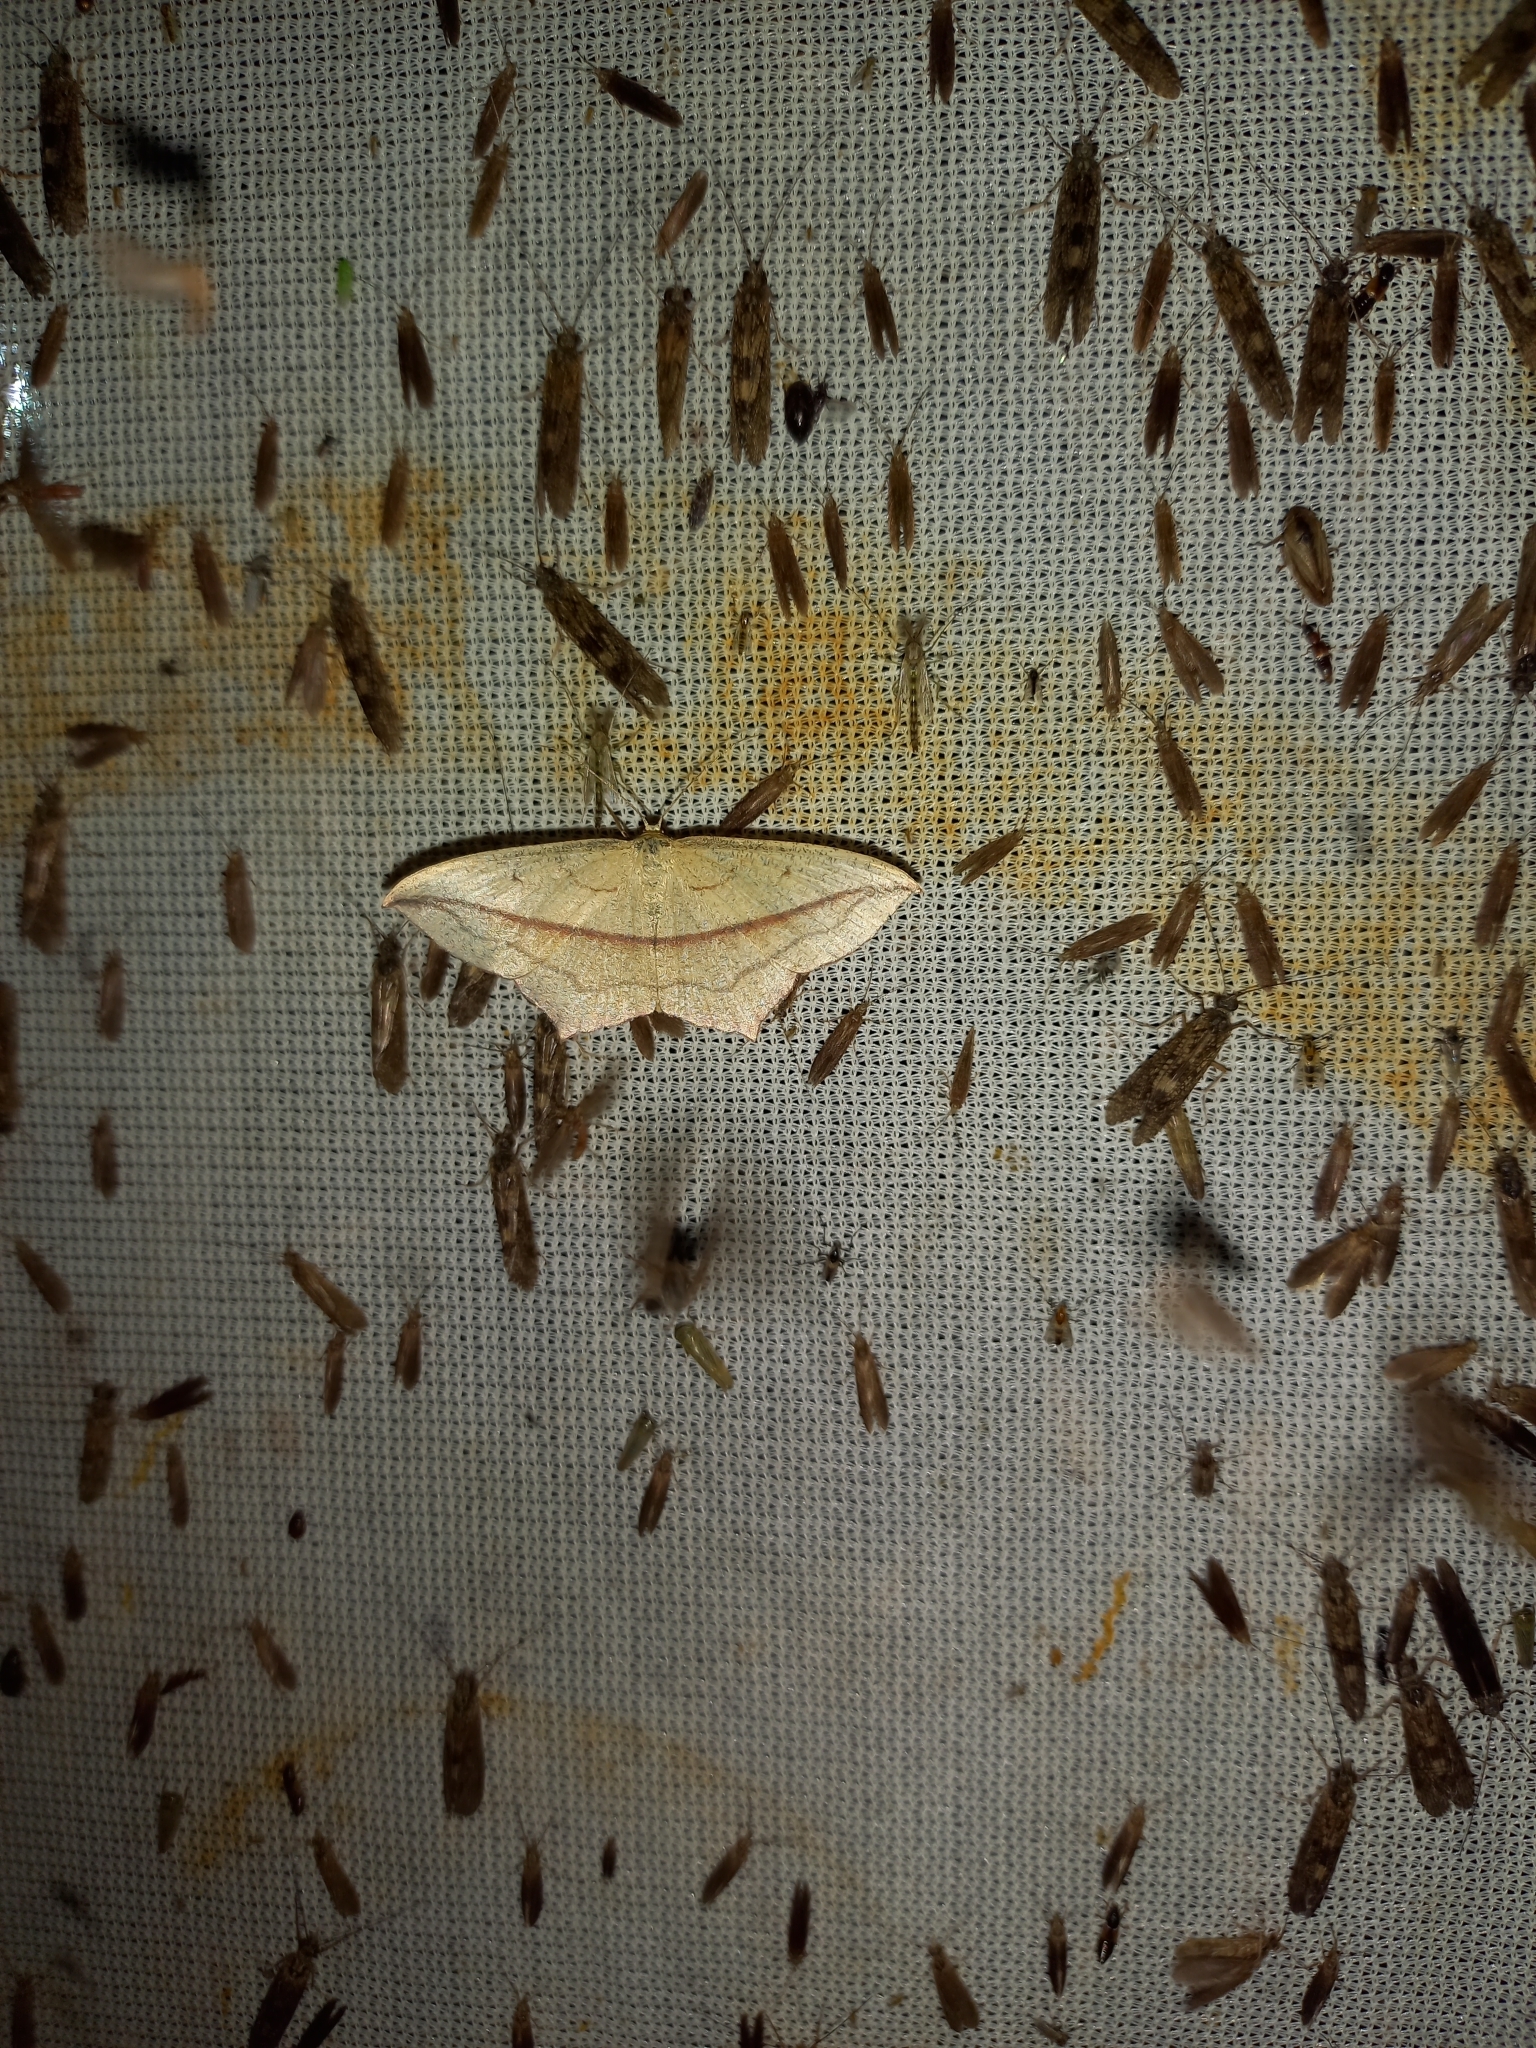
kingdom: Animalia
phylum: Arthropoda
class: Insecta
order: Lepidoptera
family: Geometridae
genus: Timandra
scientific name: Timandra comae
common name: Blood-vein
